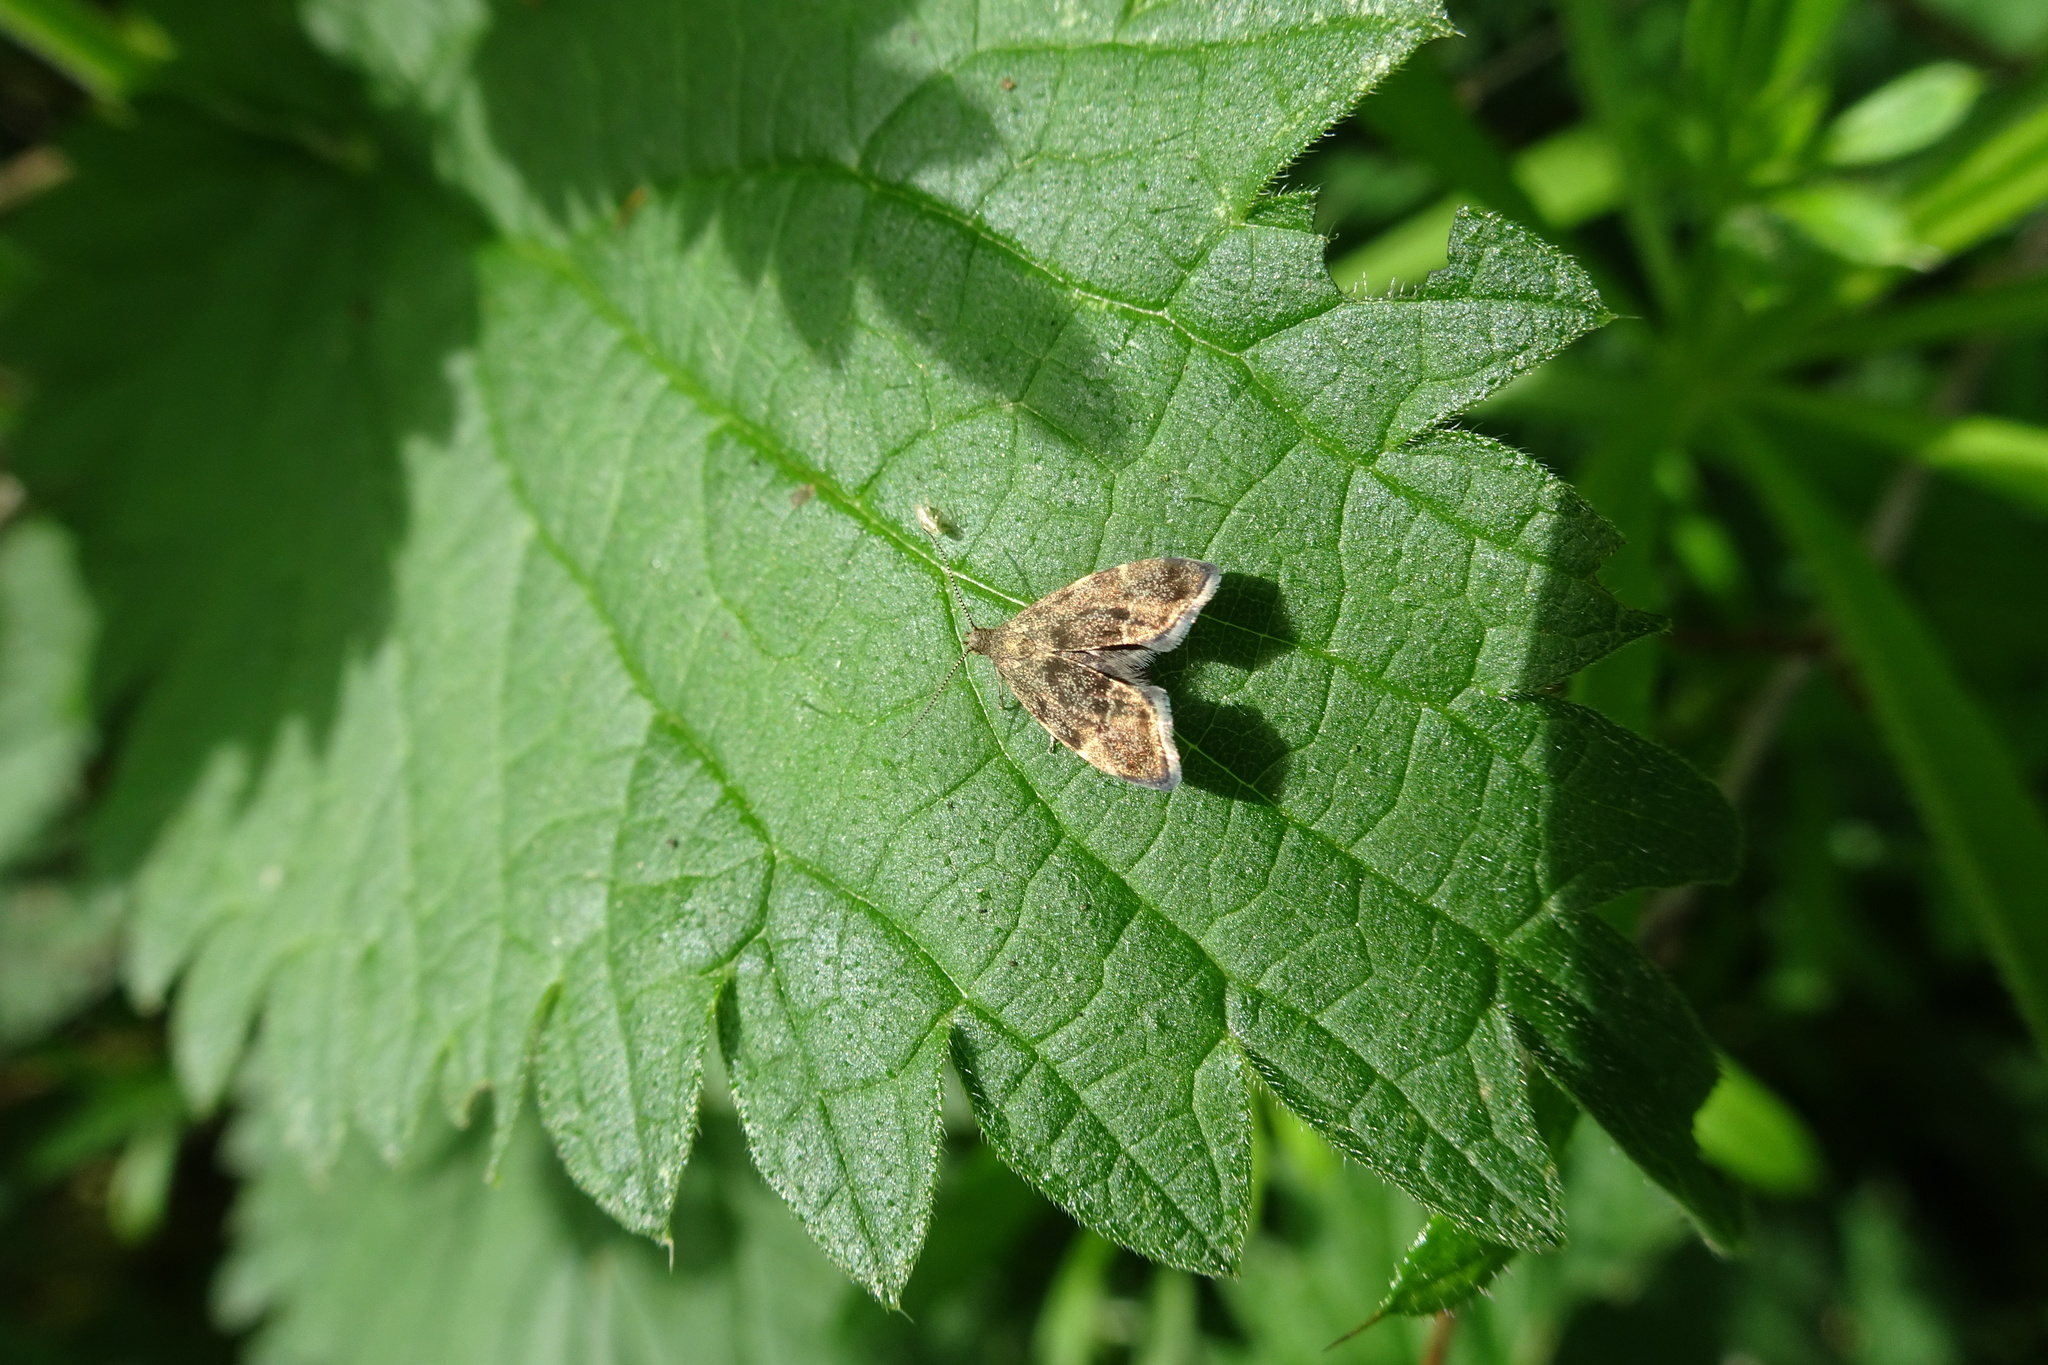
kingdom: Animalia
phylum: Arthropoda
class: Insecta
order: Lepidoptera
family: Choreutidae
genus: Anthophila
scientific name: Anthophila fabriciana
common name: Nettle-tap
